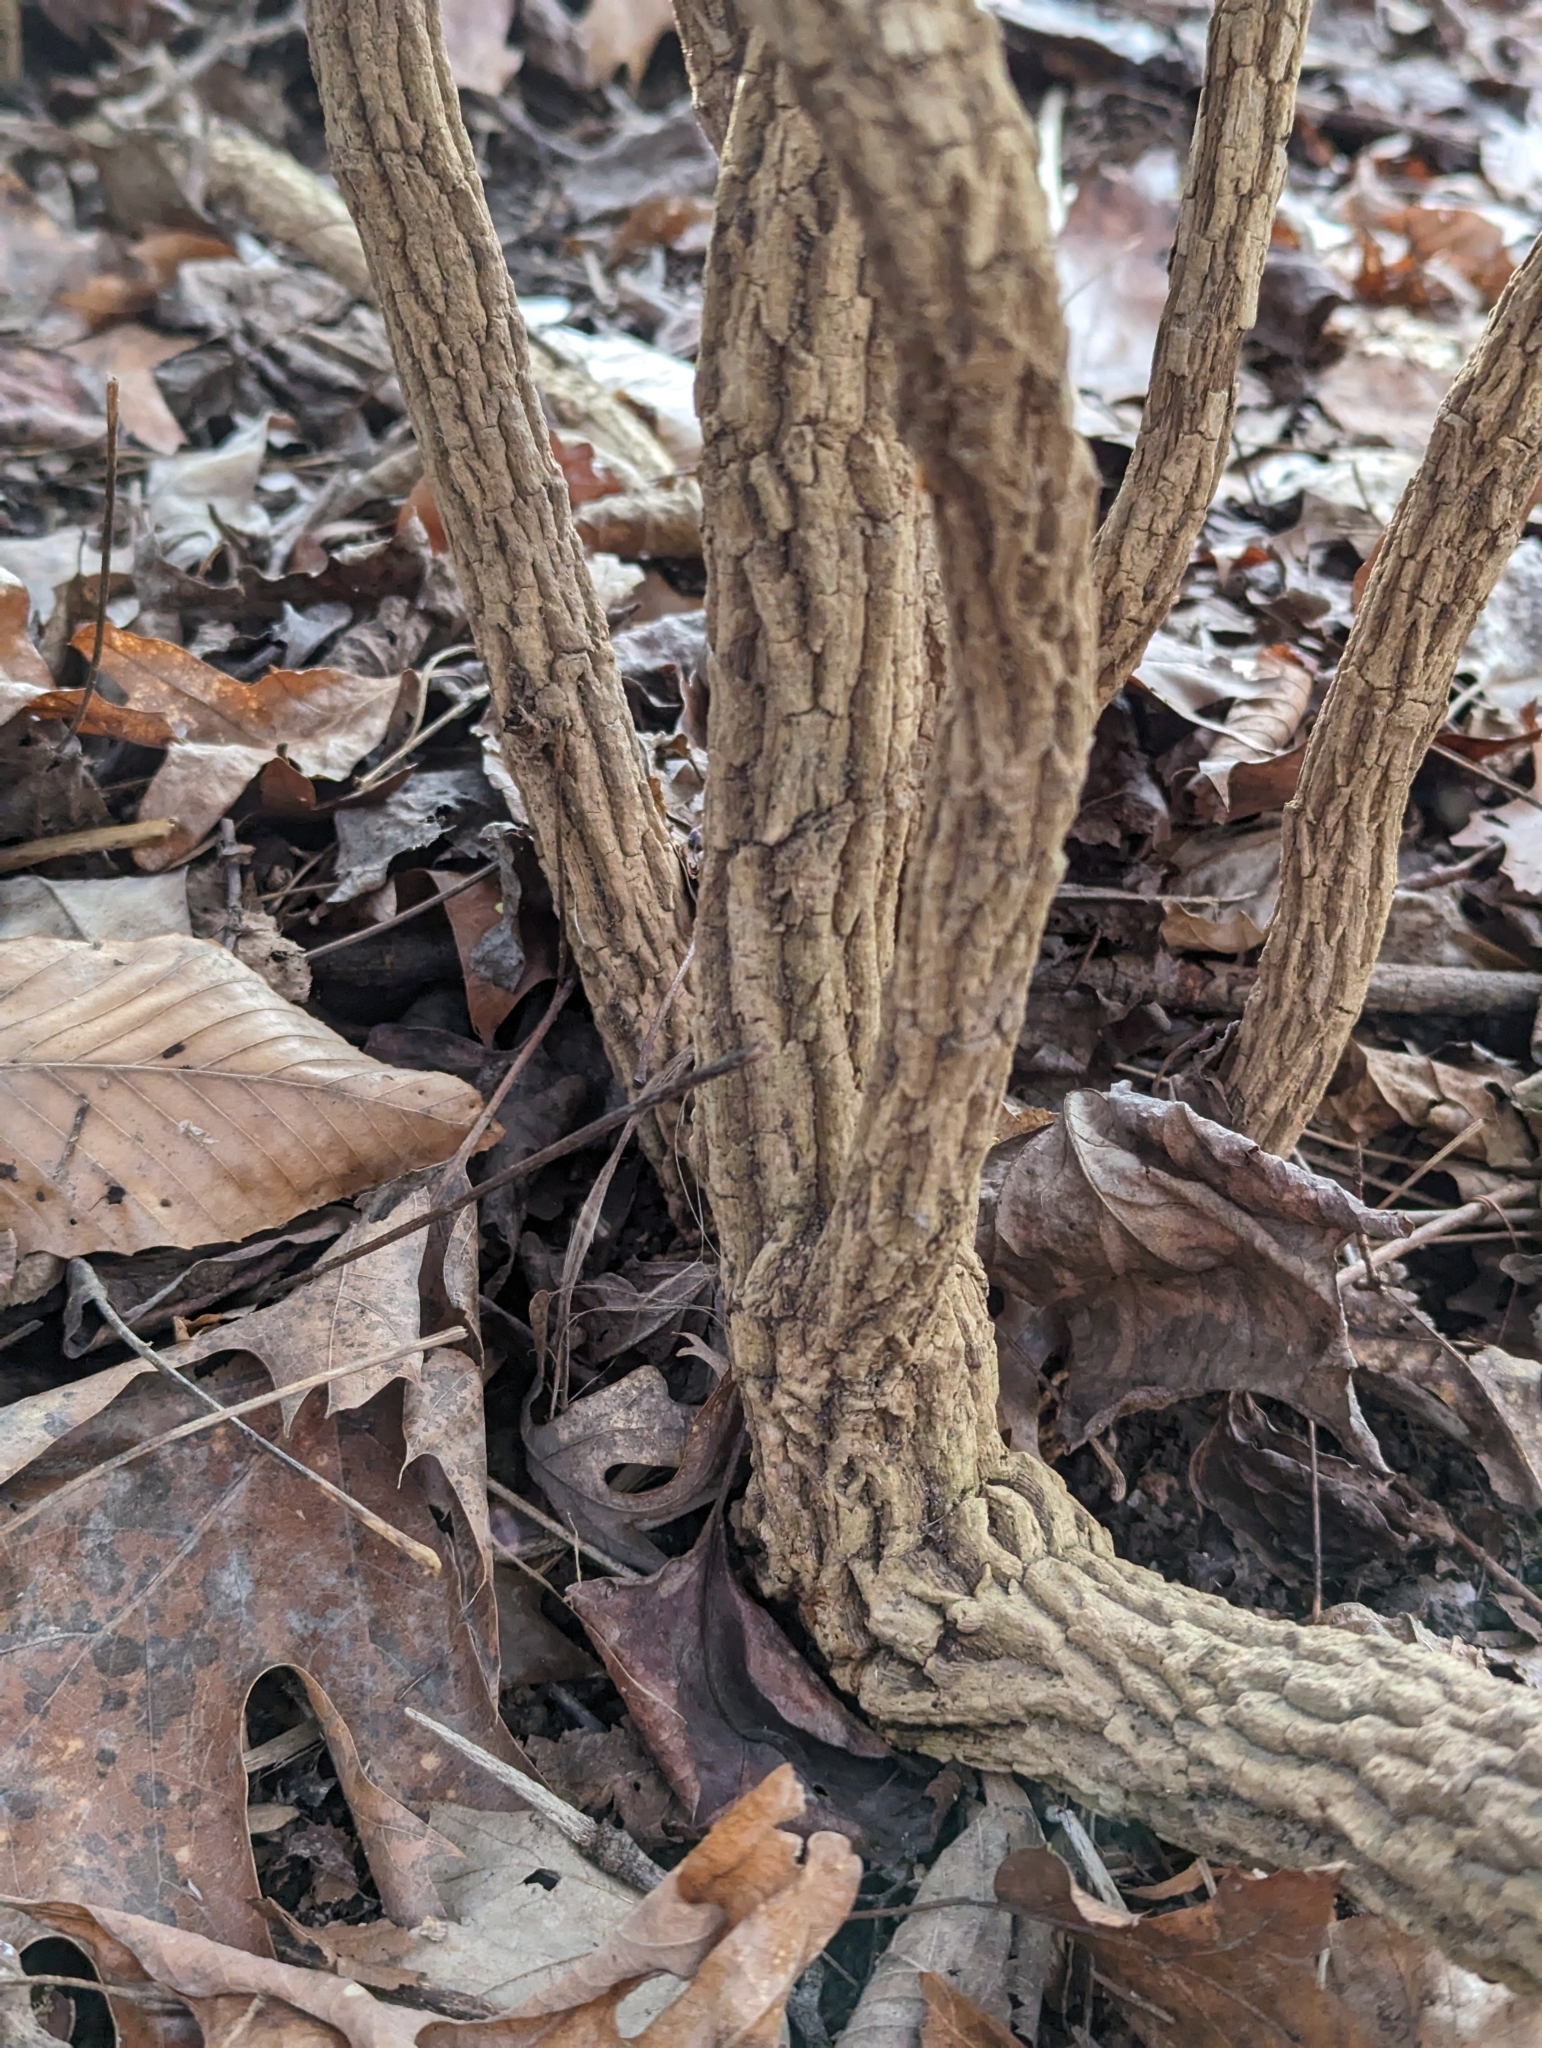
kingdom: Plantae
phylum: Tracheophyta
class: Magnoliopsida
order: Ranunculales
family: Berberidaceae
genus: Mahonia
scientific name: Mahonia bealei
